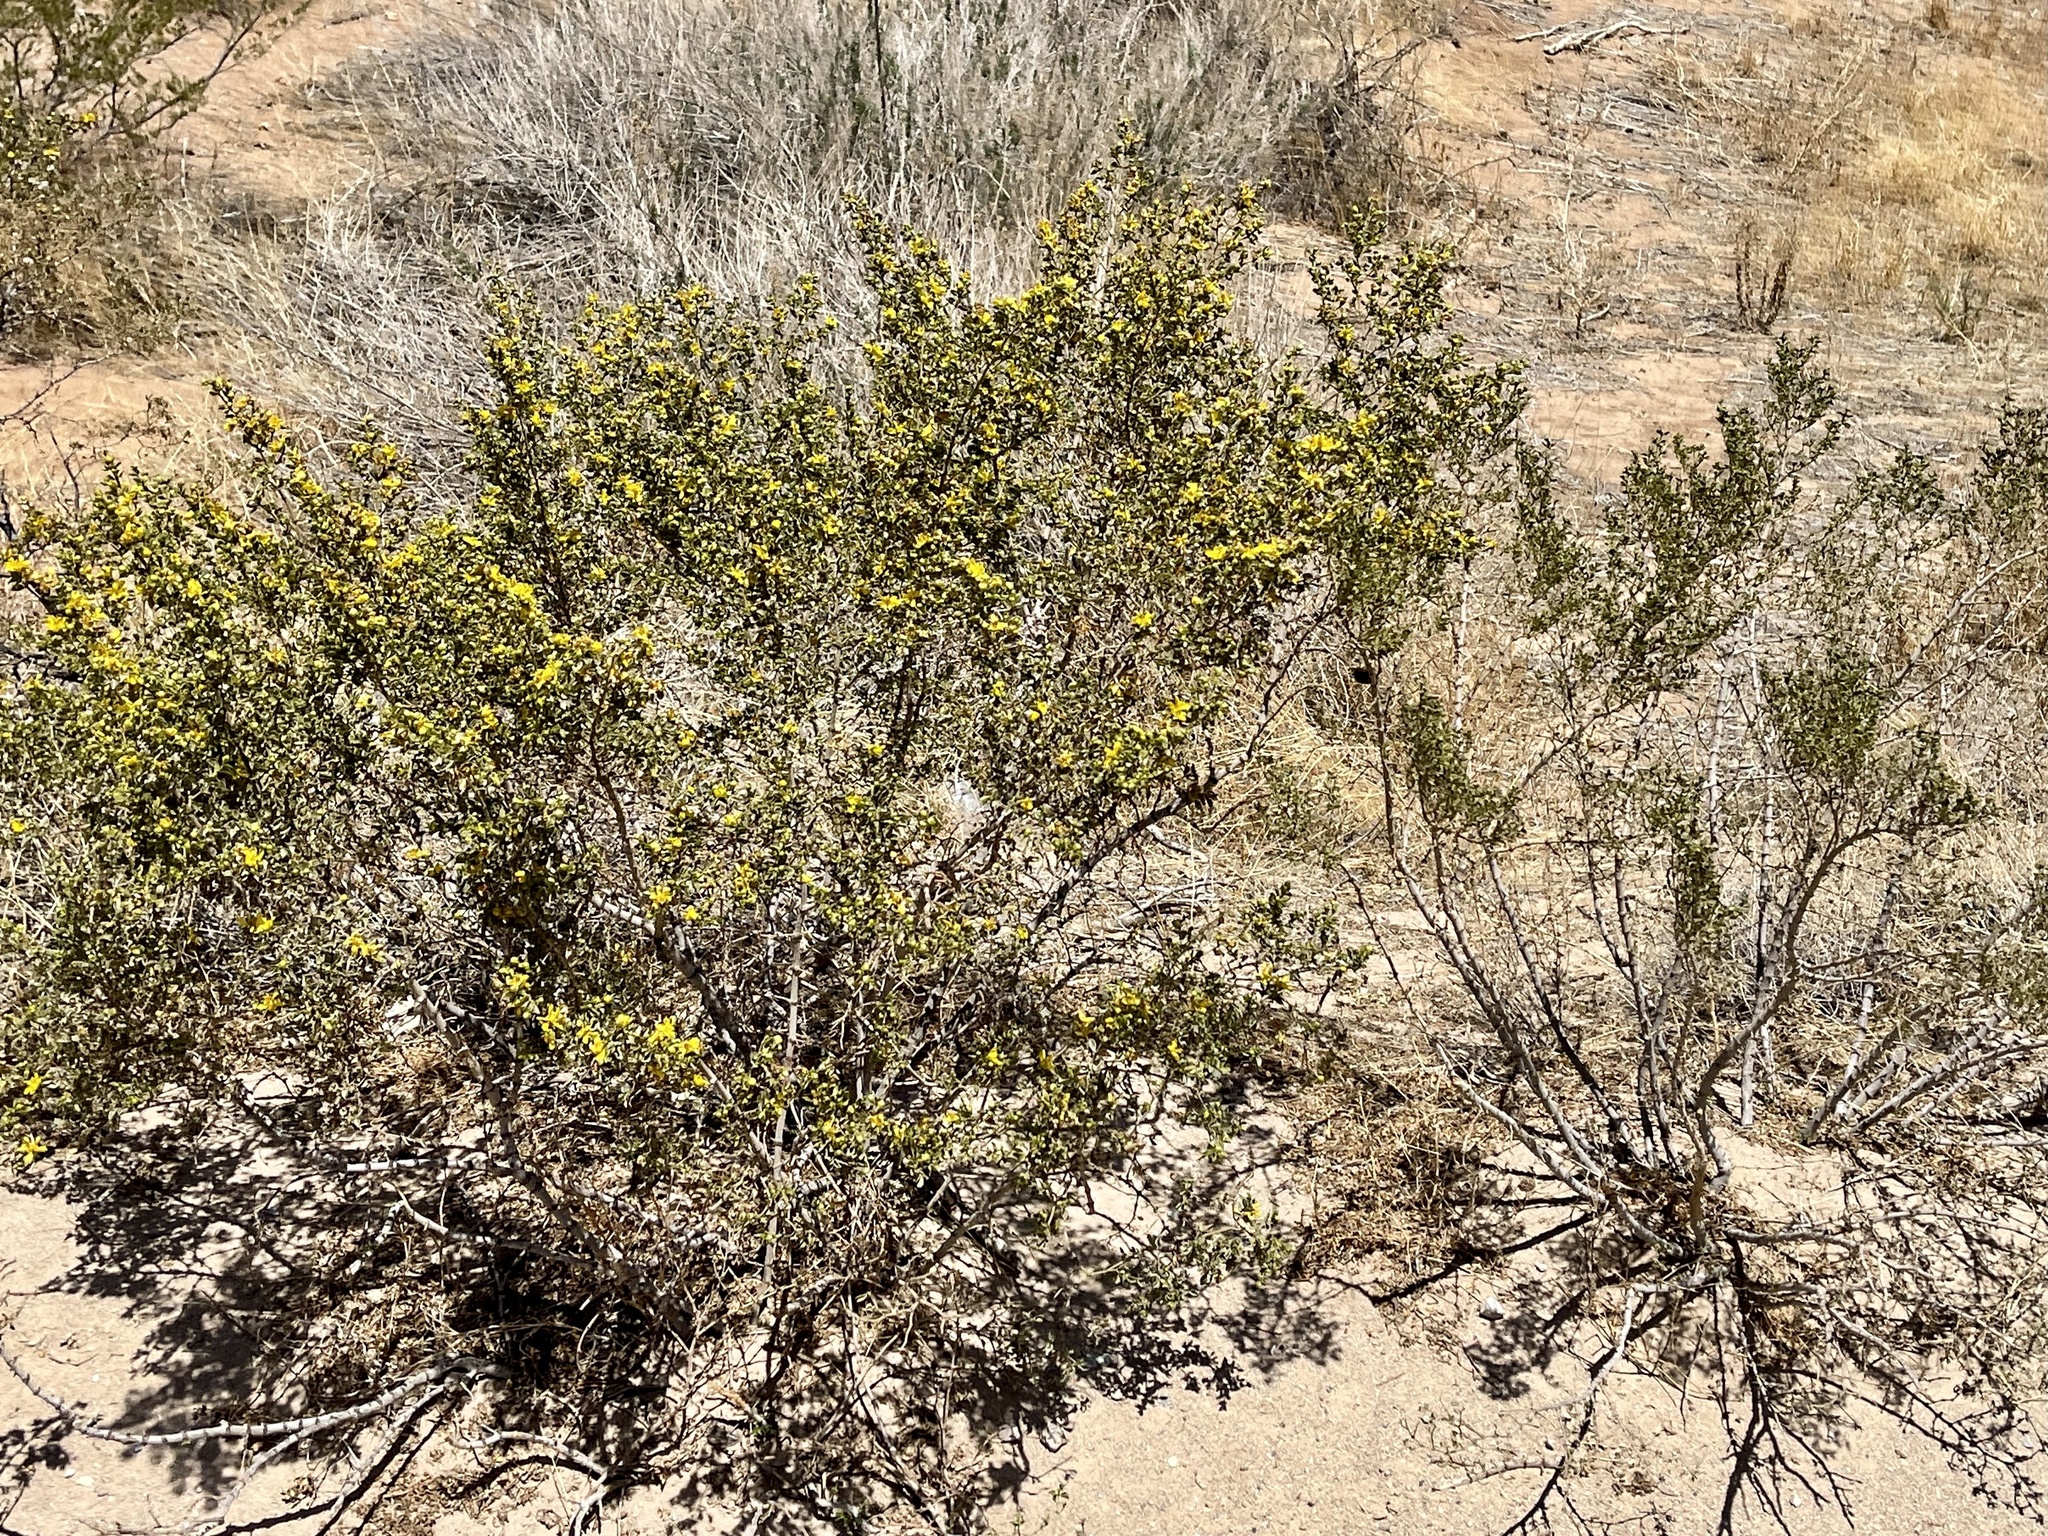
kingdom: Plantae
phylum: Tracheophyta
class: Magnoliopsida
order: Zygophyllales
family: Zygophyllaceae
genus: Larrea
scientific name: Larrea tridentata
